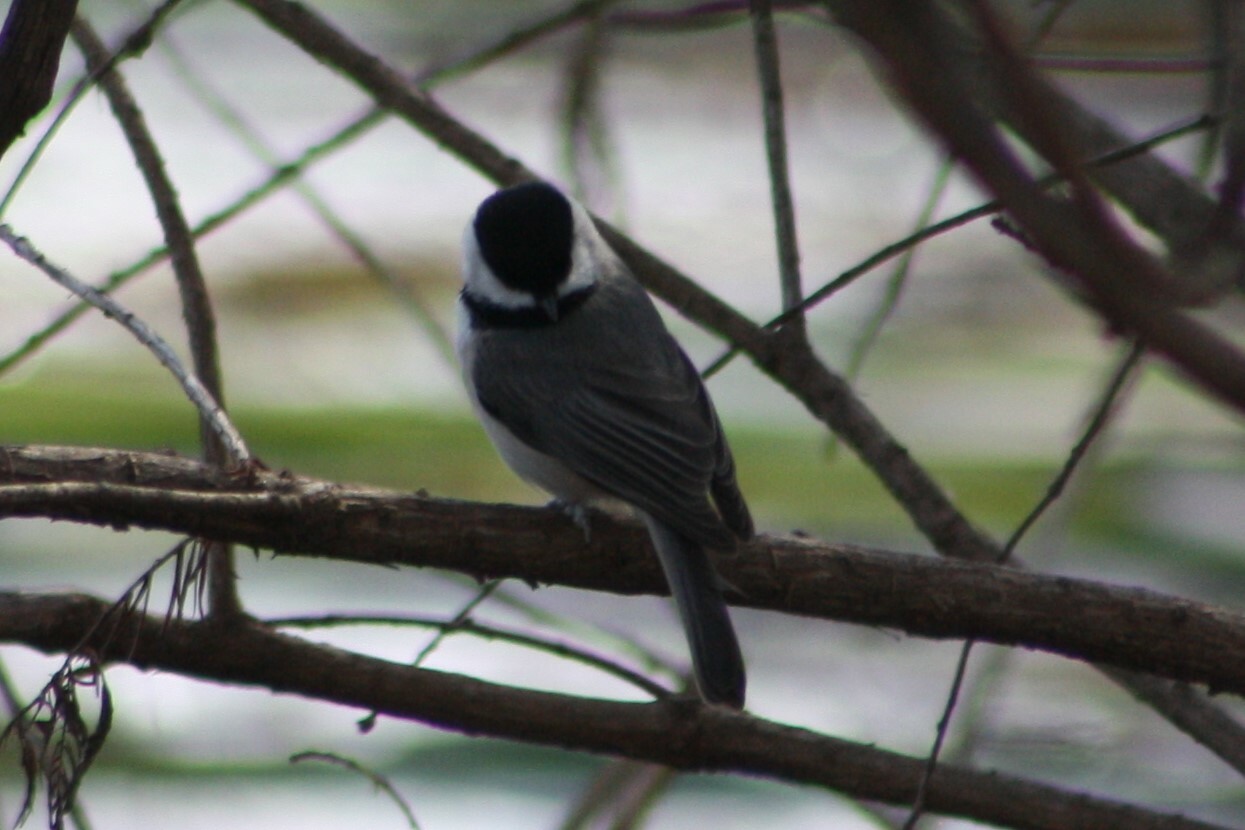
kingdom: Animalia
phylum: Chordata
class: Aves
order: Passeriformes
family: Paridae
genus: Poecile
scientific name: Poecile carolinensis
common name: Carolina chickadee
